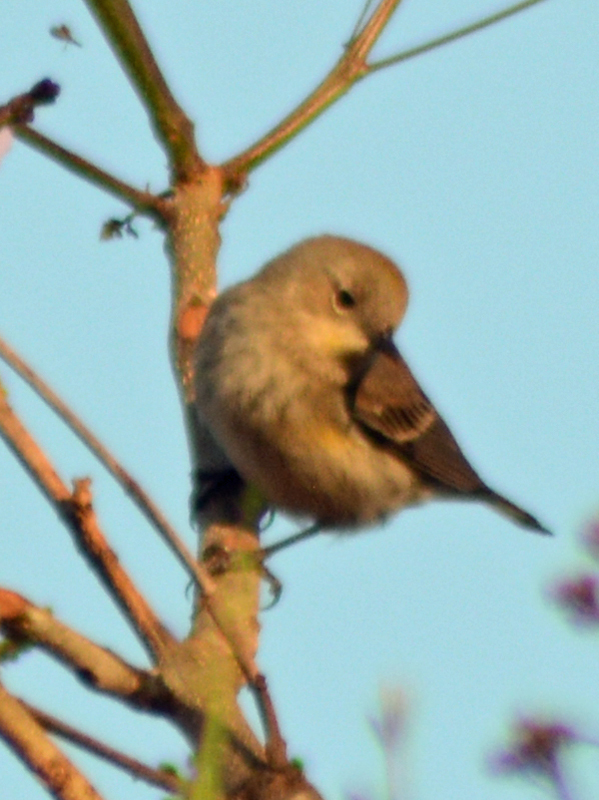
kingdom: Animalia
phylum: Chordata
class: Aves
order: Passeriformes
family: Parulidae
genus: Setophaga
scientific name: Setophaga coronata
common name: Myrtle warbler
